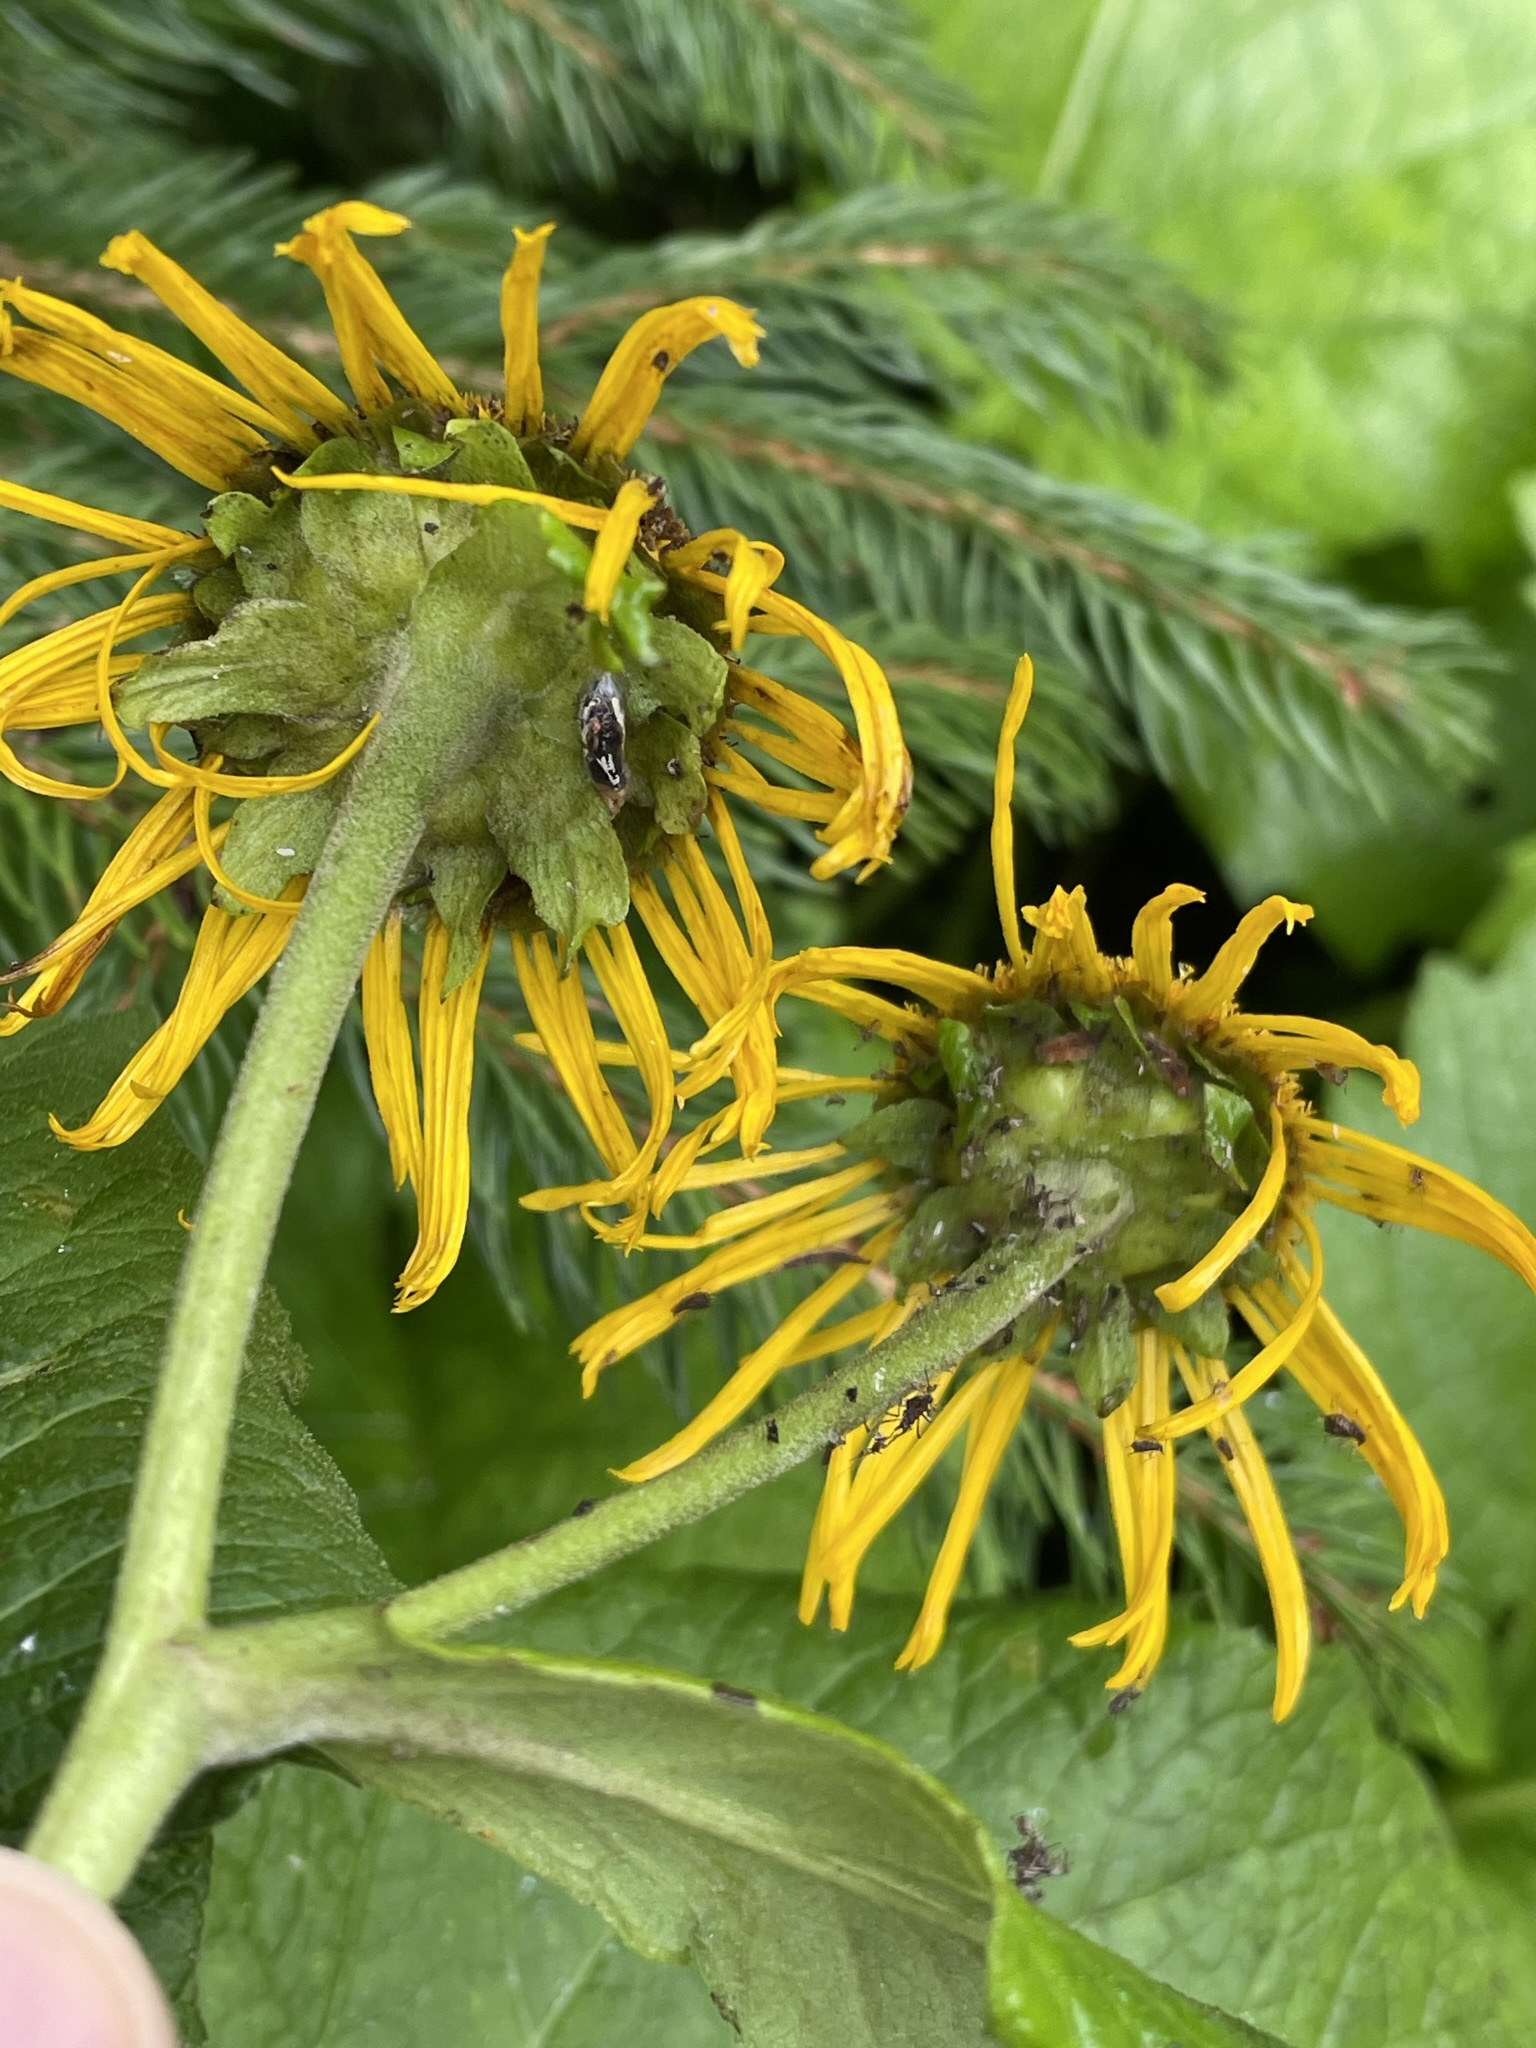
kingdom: Plantae
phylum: Tracheophyta
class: Magnoliopsida
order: Asterales
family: Asteraceae
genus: Telekia
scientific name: Telekia speciosa
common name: Yellow oxeye
